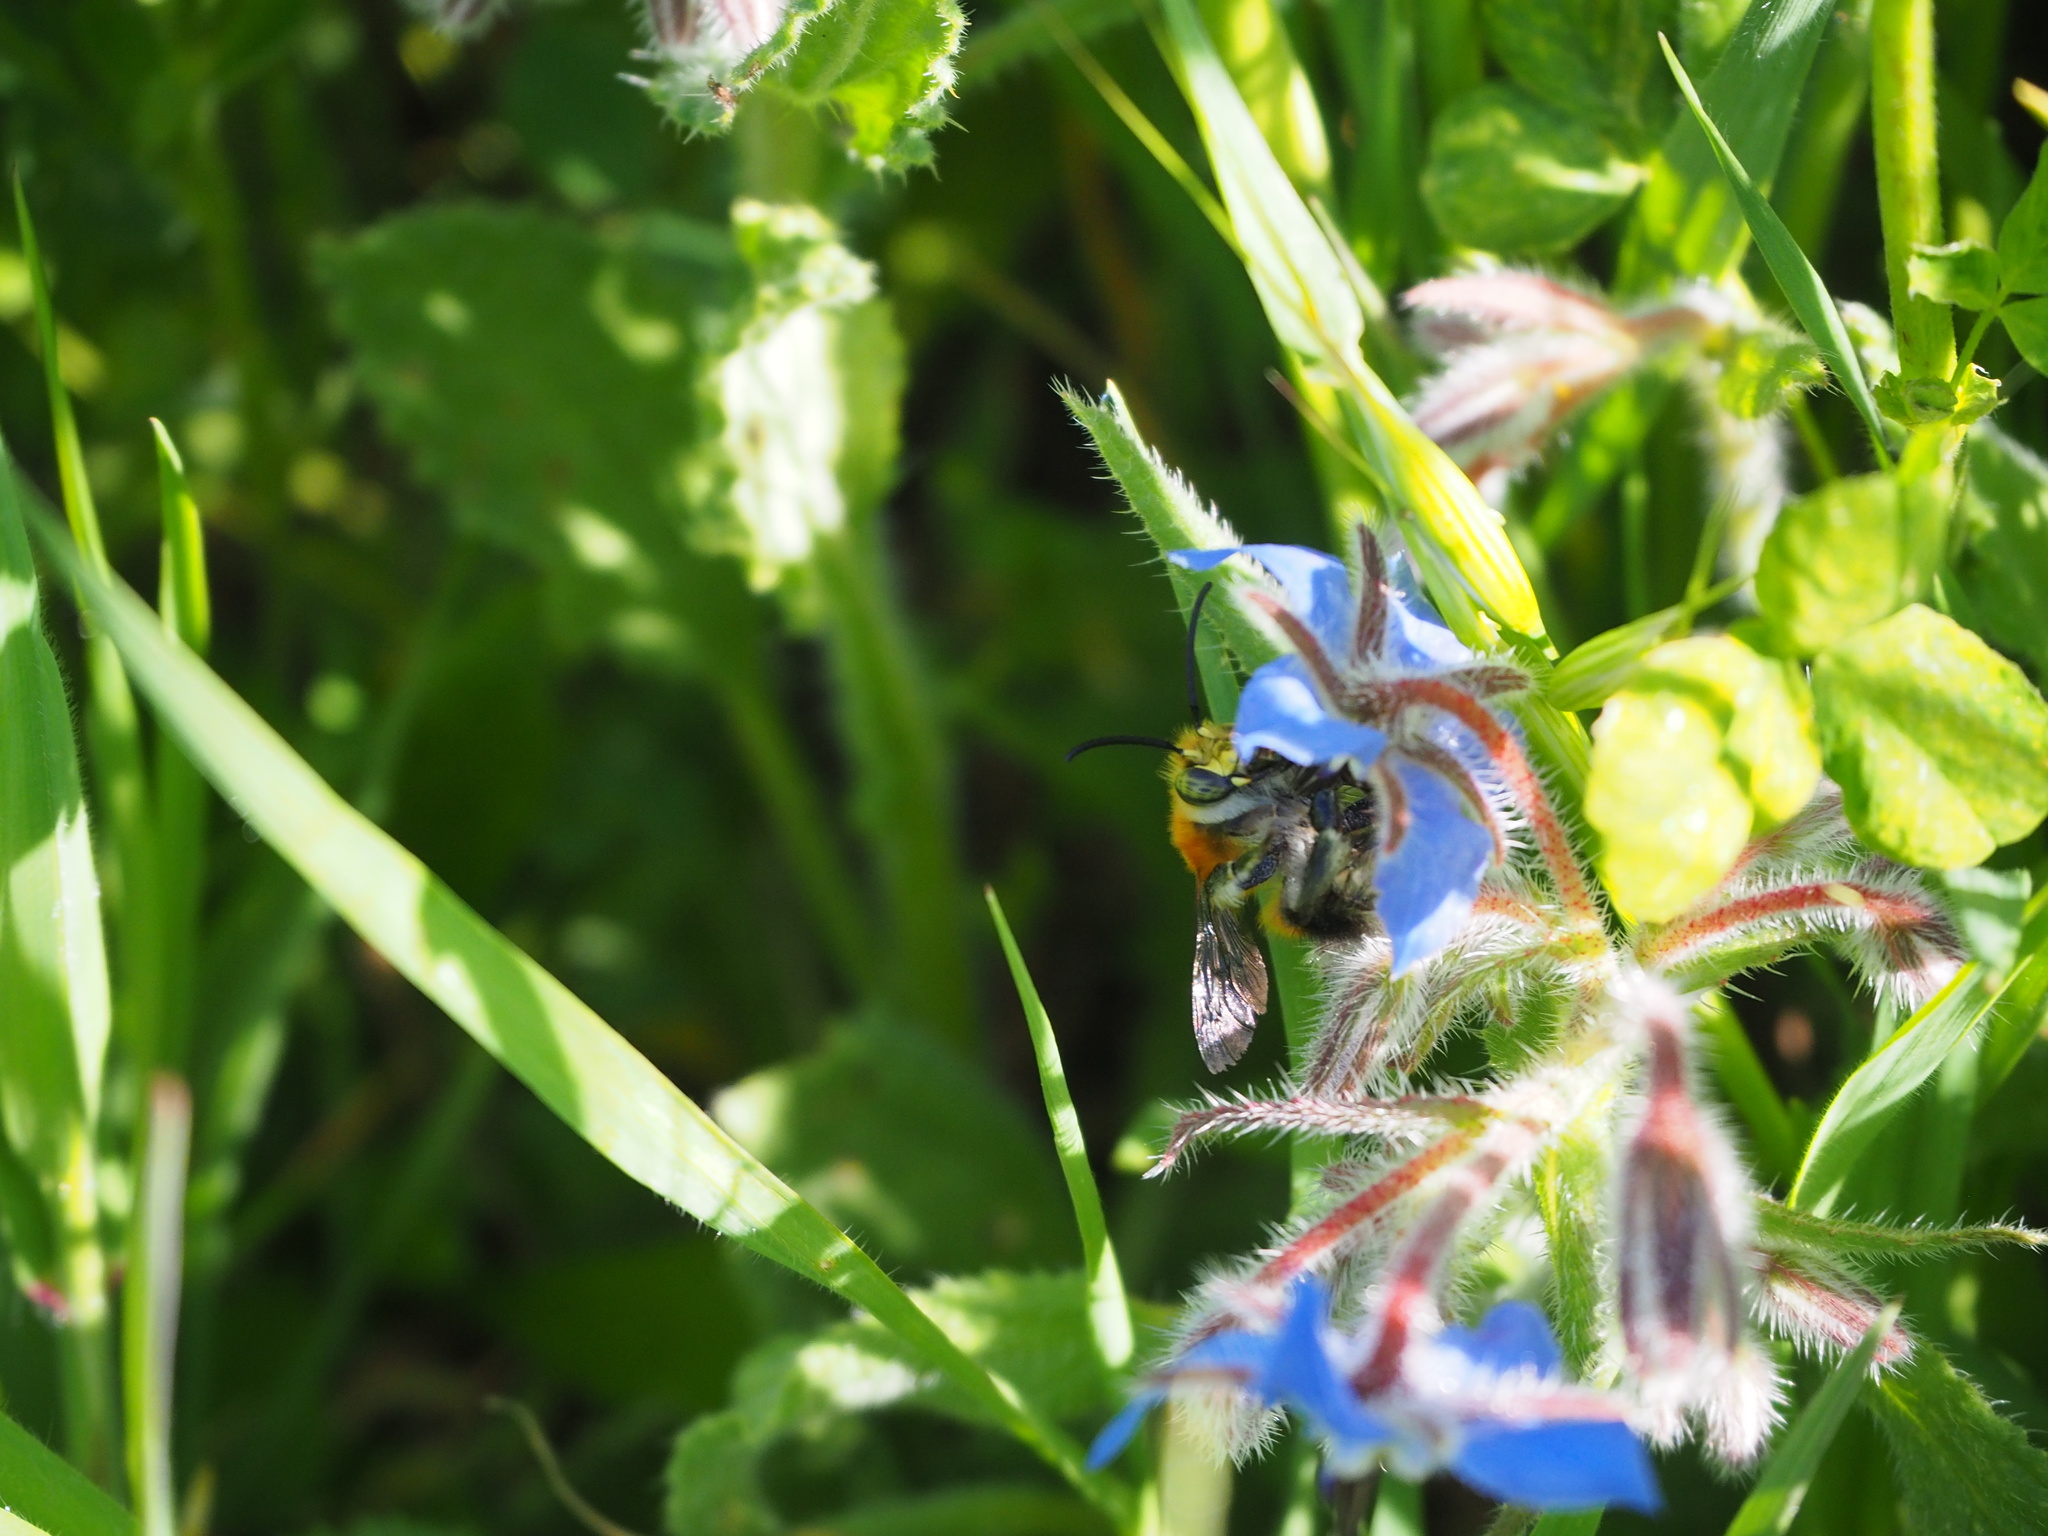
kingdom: Animalia
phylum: Arthropoda
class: Insecta
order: Hymenoptera
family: Apidae
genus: Habropoda
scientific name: Habropoda tarsata
